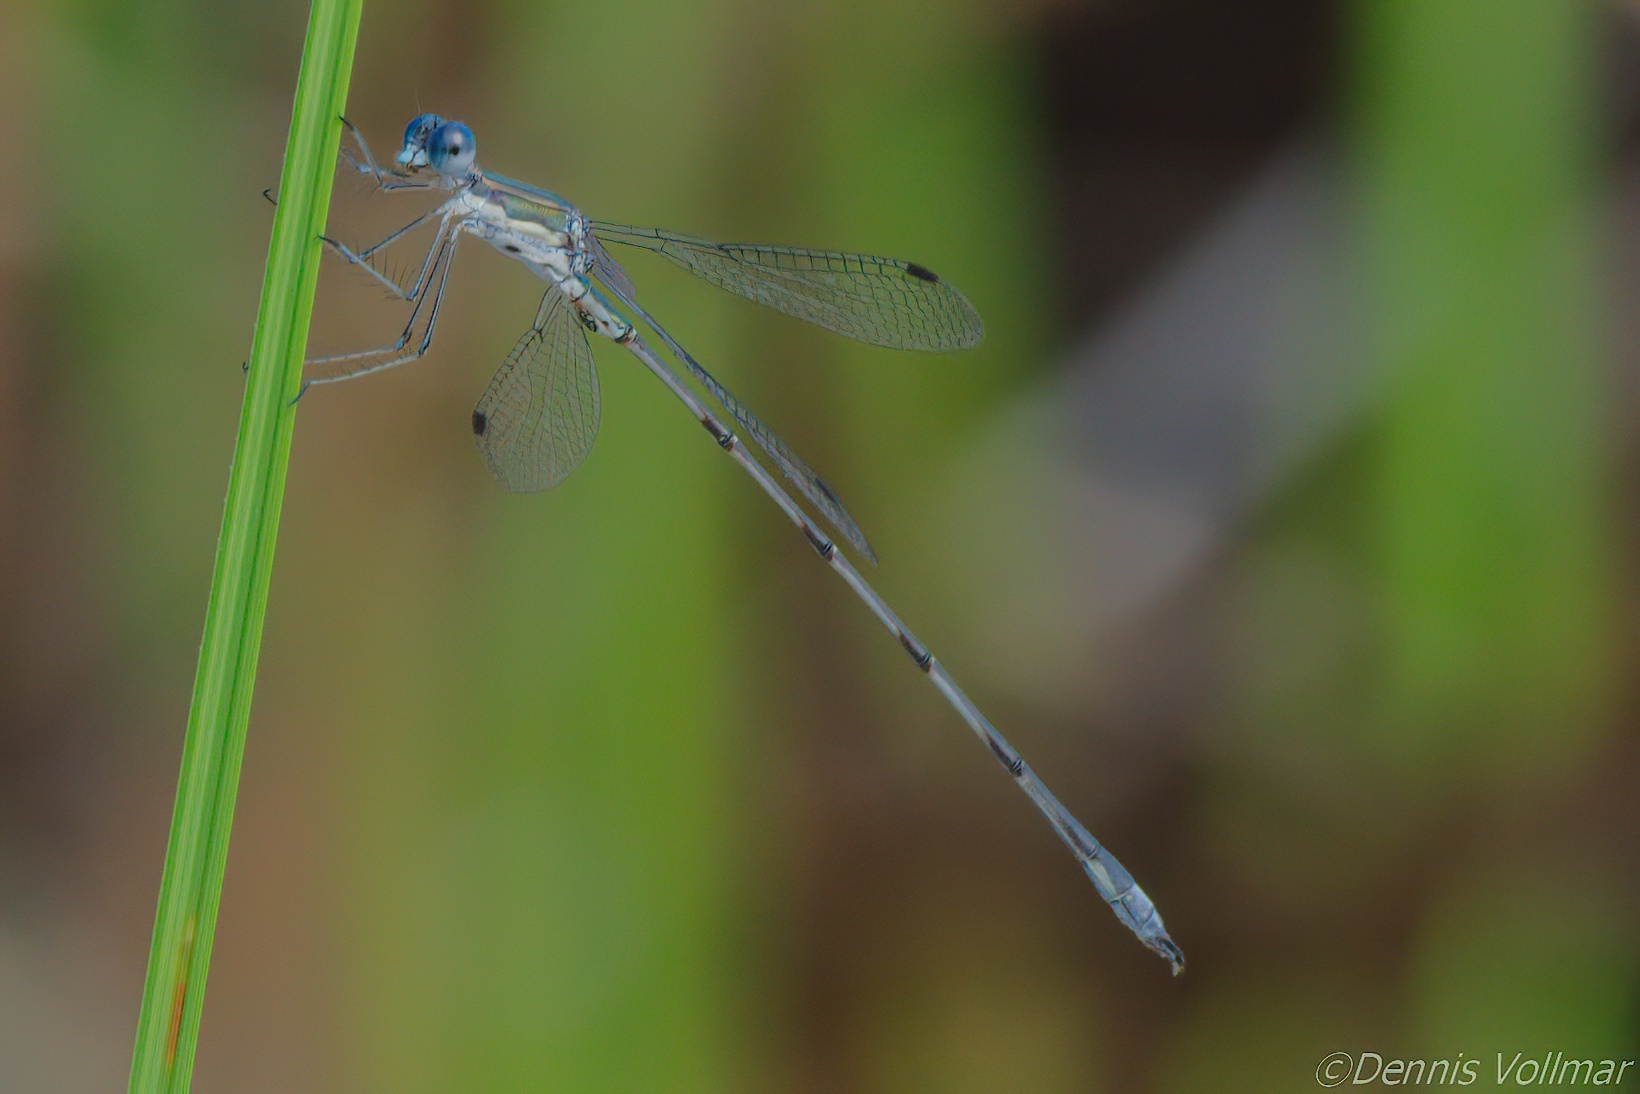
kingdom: Animalia
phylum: Arthropoda
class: Insecta
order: Odonata
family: Lestidae
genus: Lestes
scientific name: Lestes spumarius
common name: Antillean spreadwing
